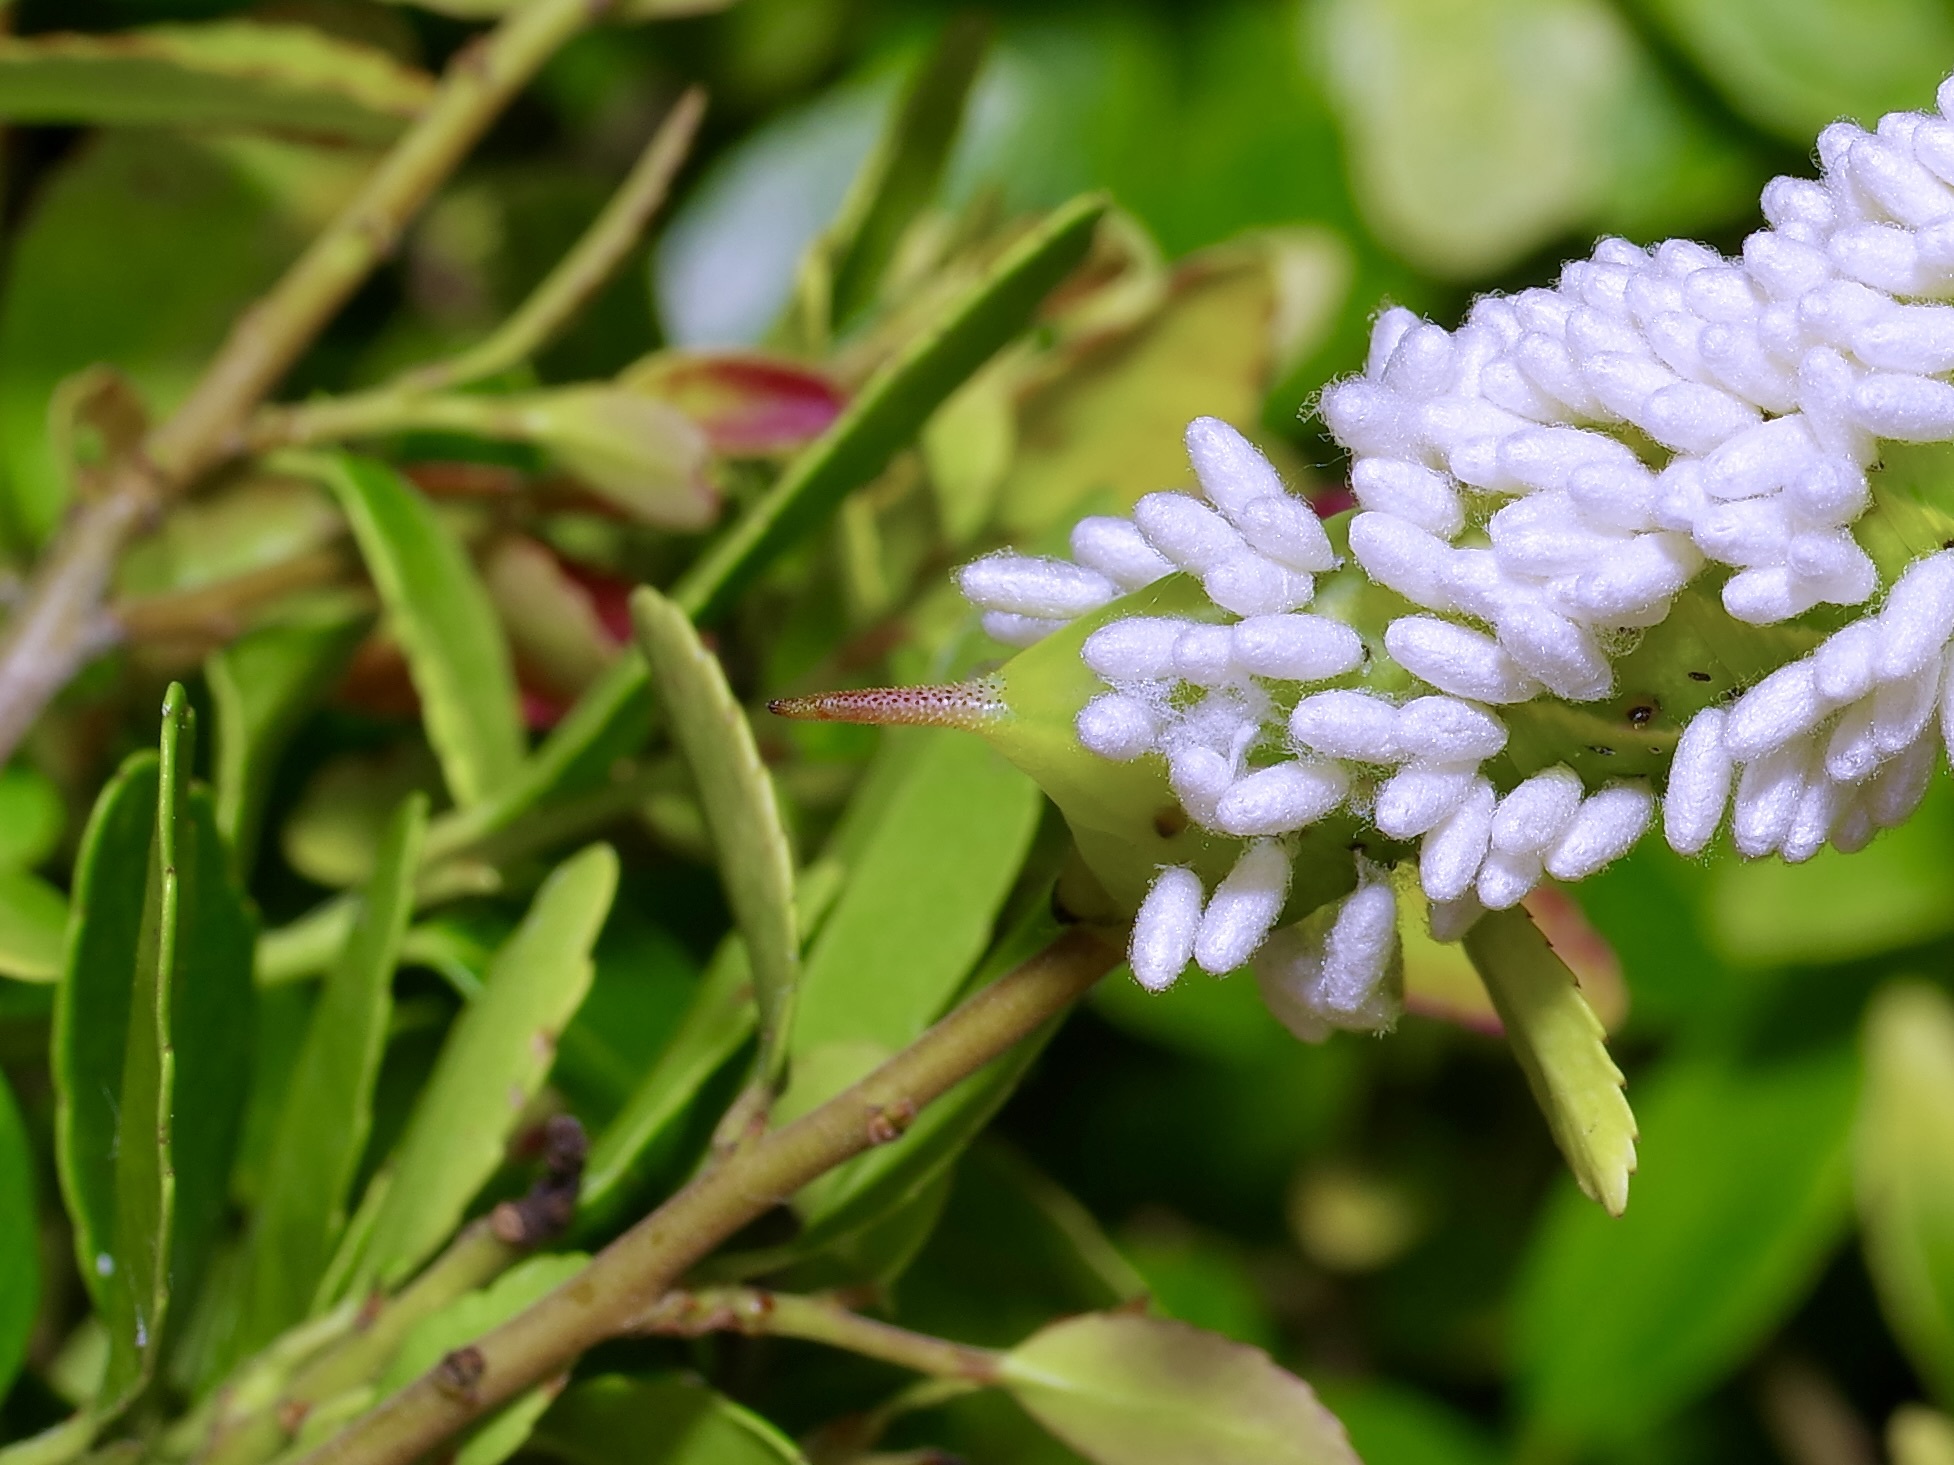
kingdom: Animalia
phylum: Arthropoda
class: Insecta
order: Lepidoptera
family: Sphingidae
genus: Dolba
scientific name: Dolba hyloeus
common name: Pawpaw sphinx
